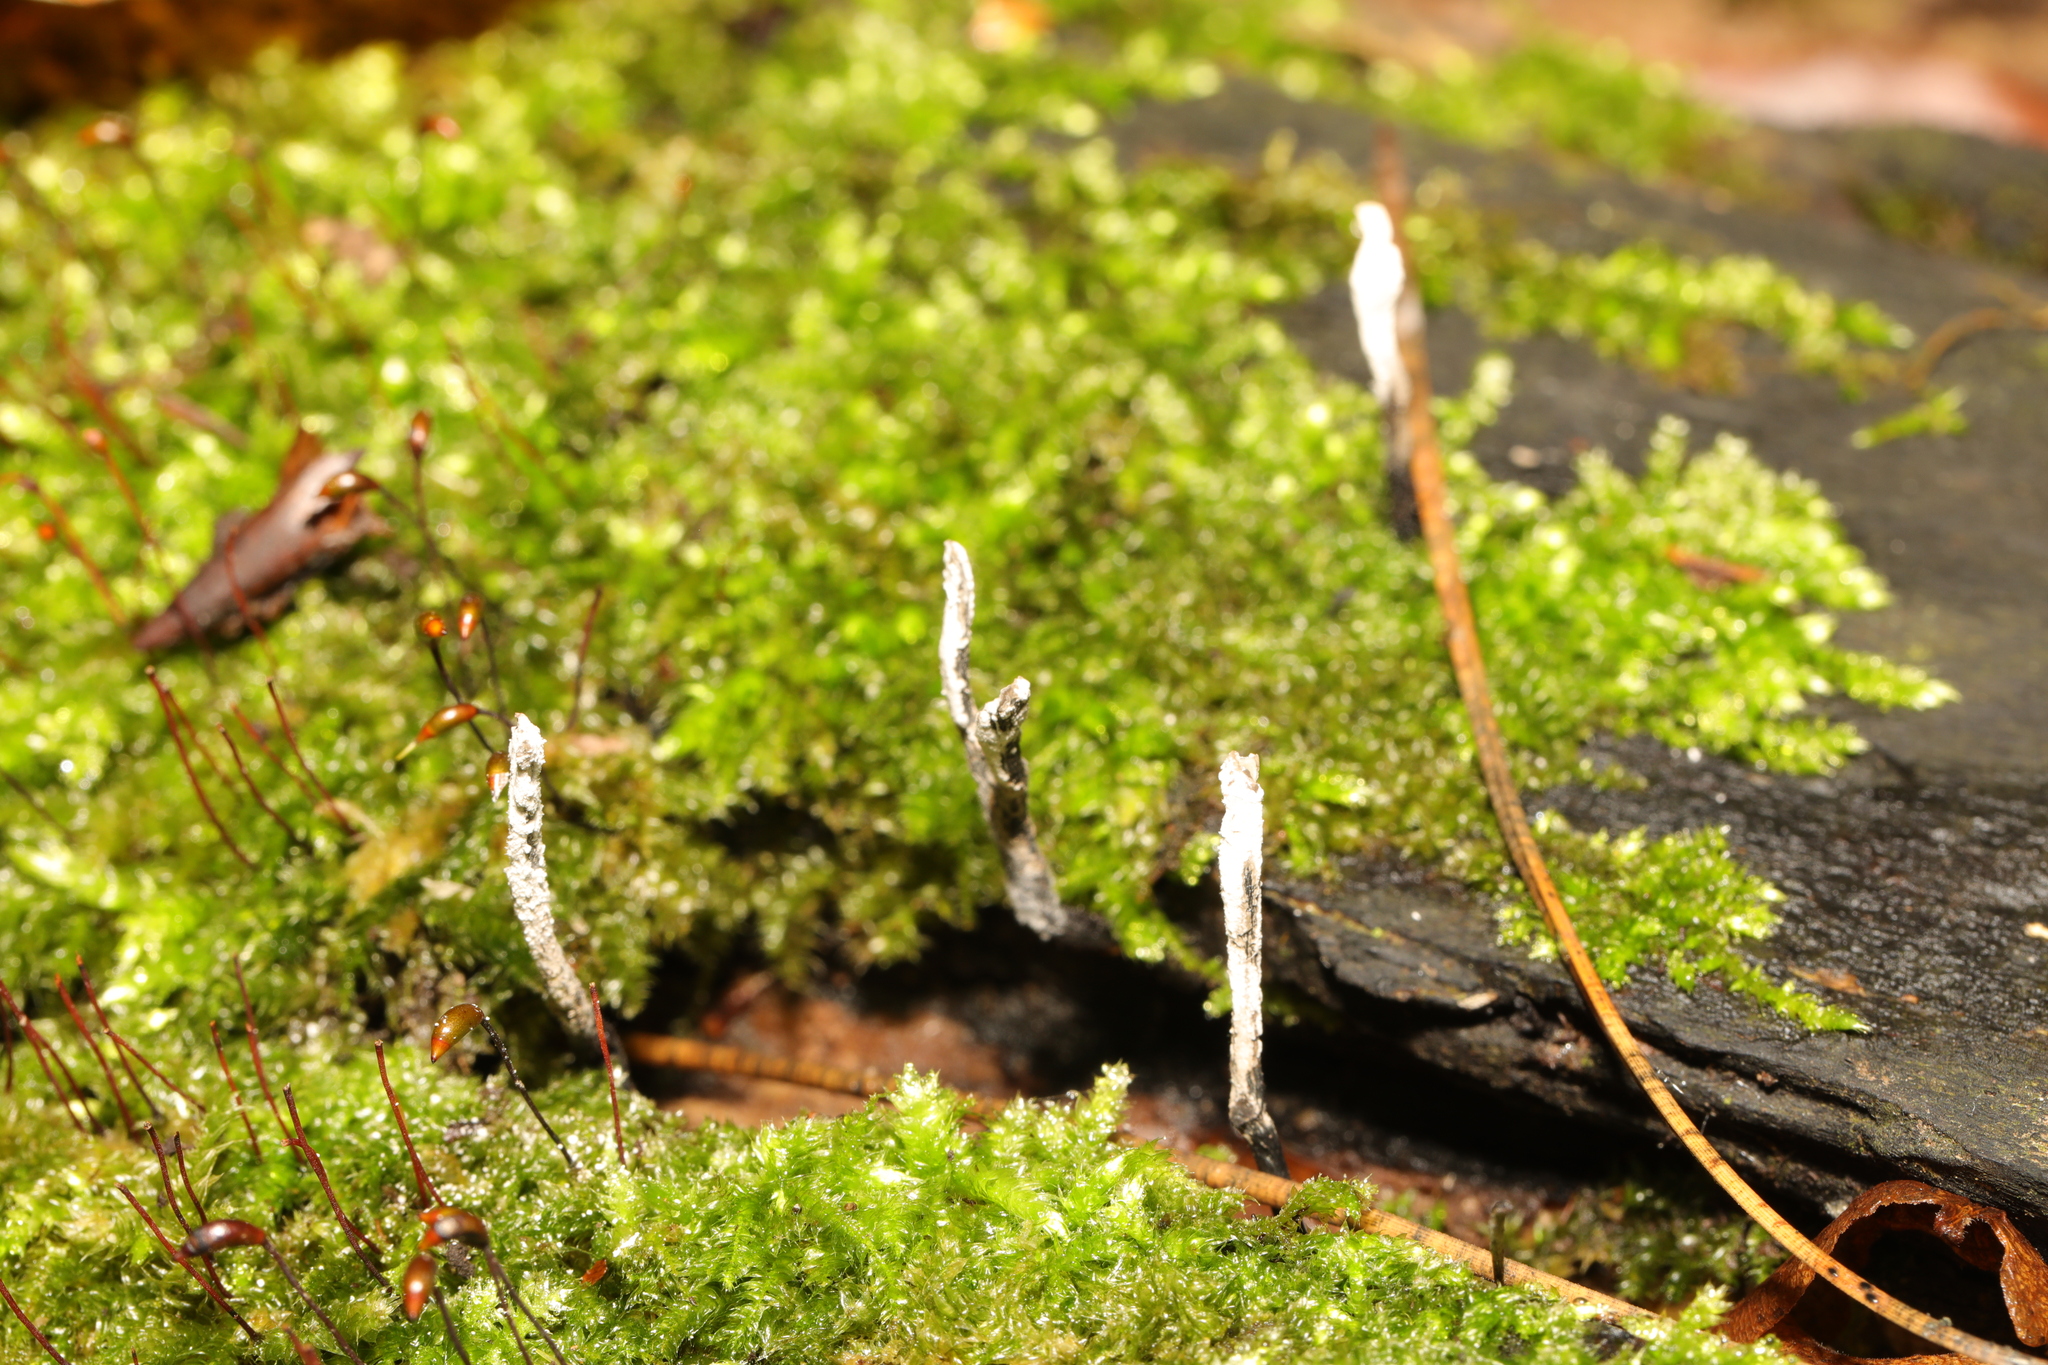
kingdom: Fungi
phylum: Ascomycota
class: Sordariomycetes
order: Xylariales
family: Xylariaceae
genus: Xylaria
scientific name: Xylaria hypoxylon
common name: Candle-snuff fungus
